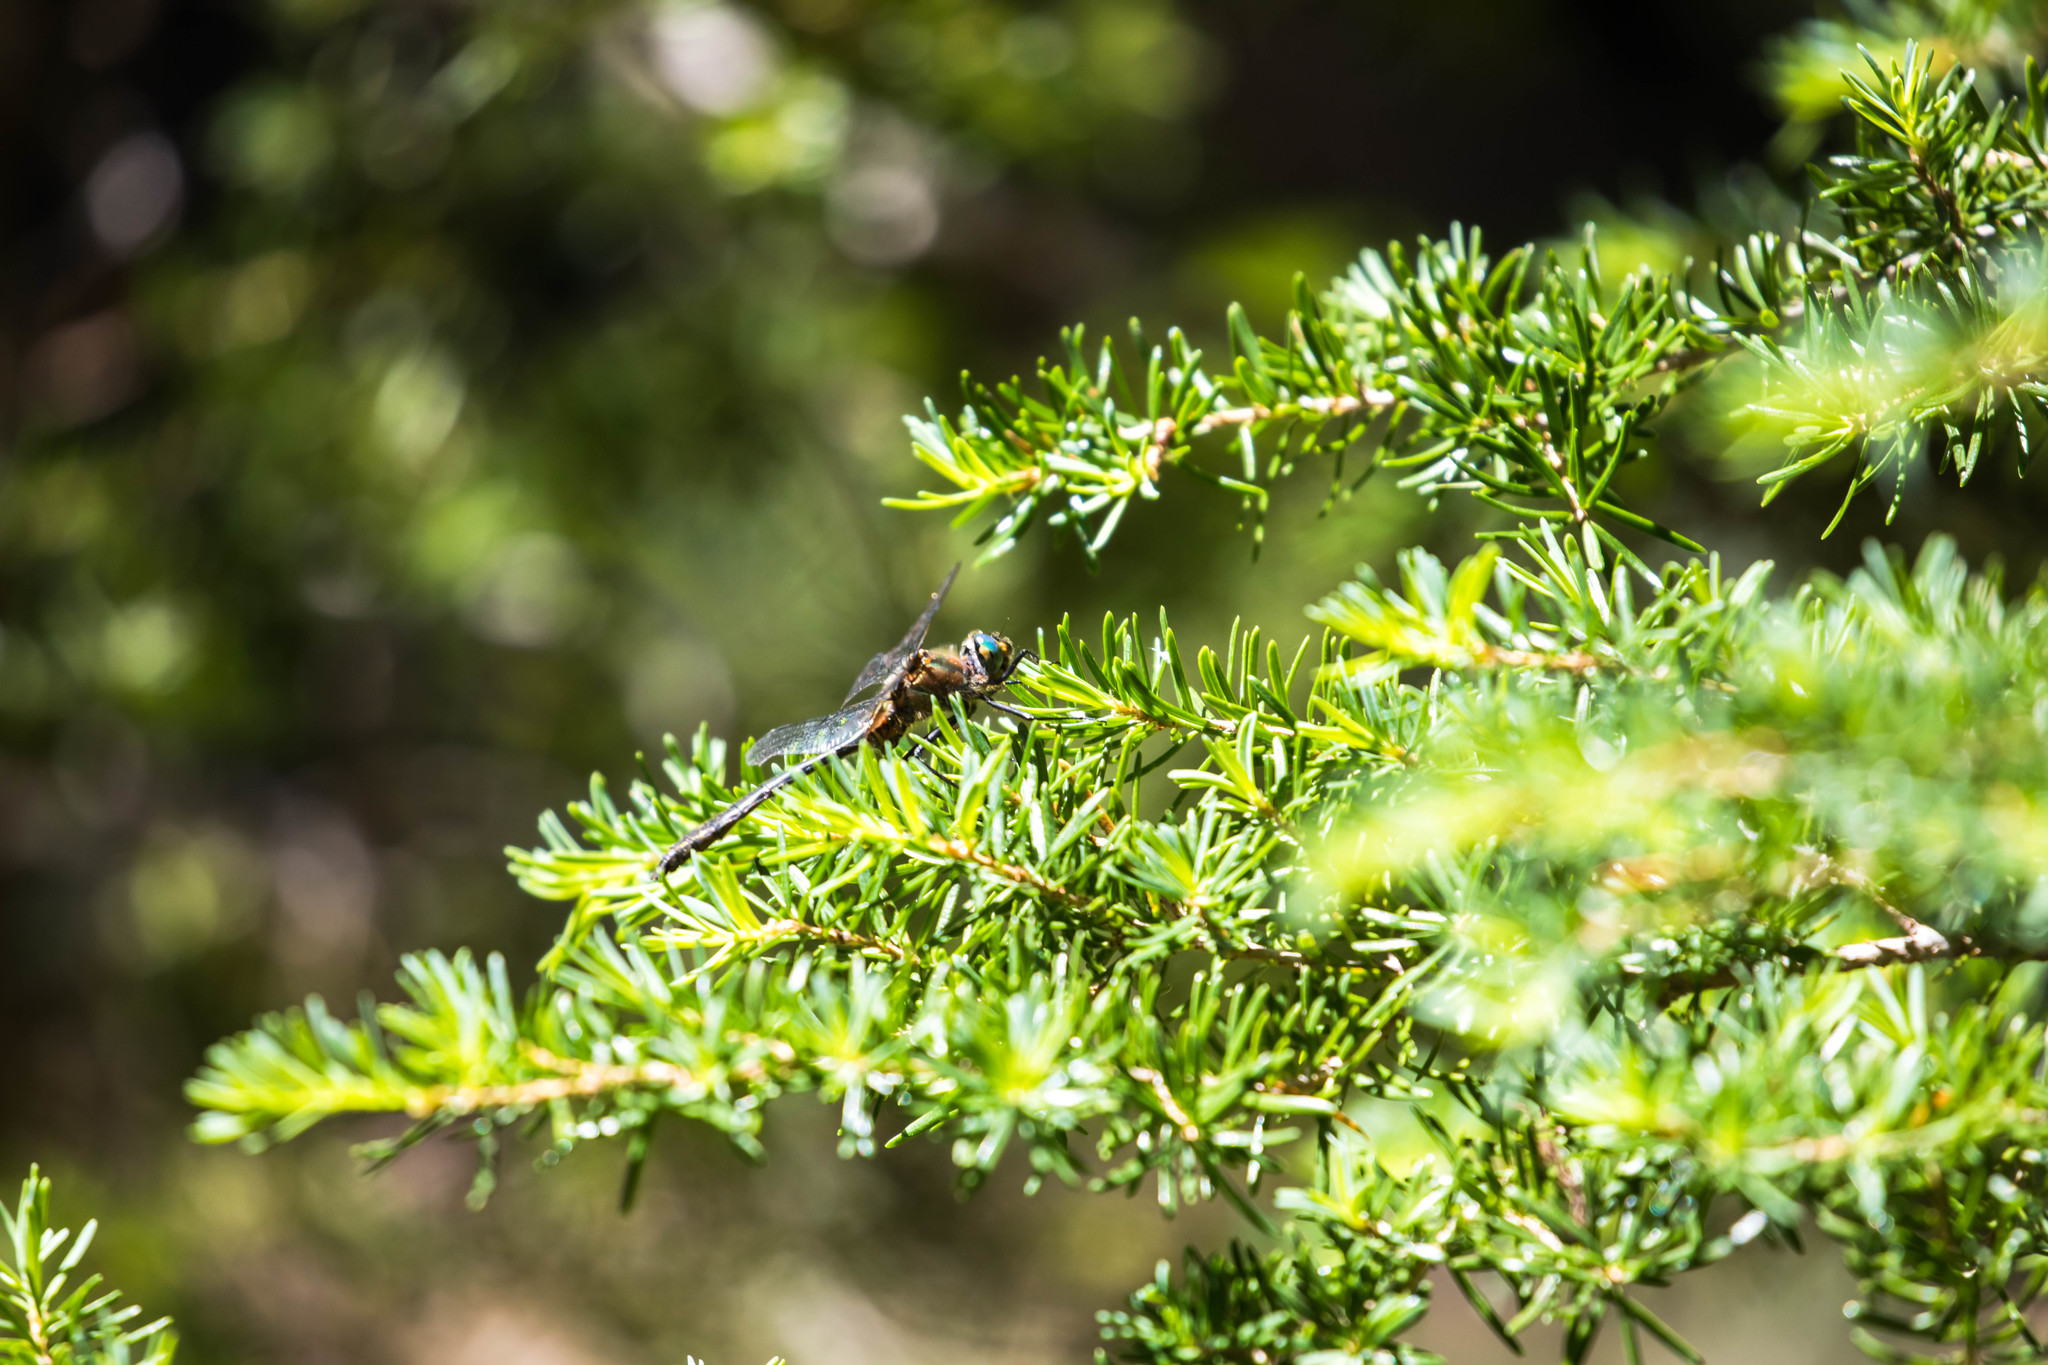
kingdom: Animalia
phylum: Arthropoda
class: Insecta
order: Odonata
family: Corduliidae
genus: Cordulia
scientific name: Cordulia shurtleffii
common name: American emerald
